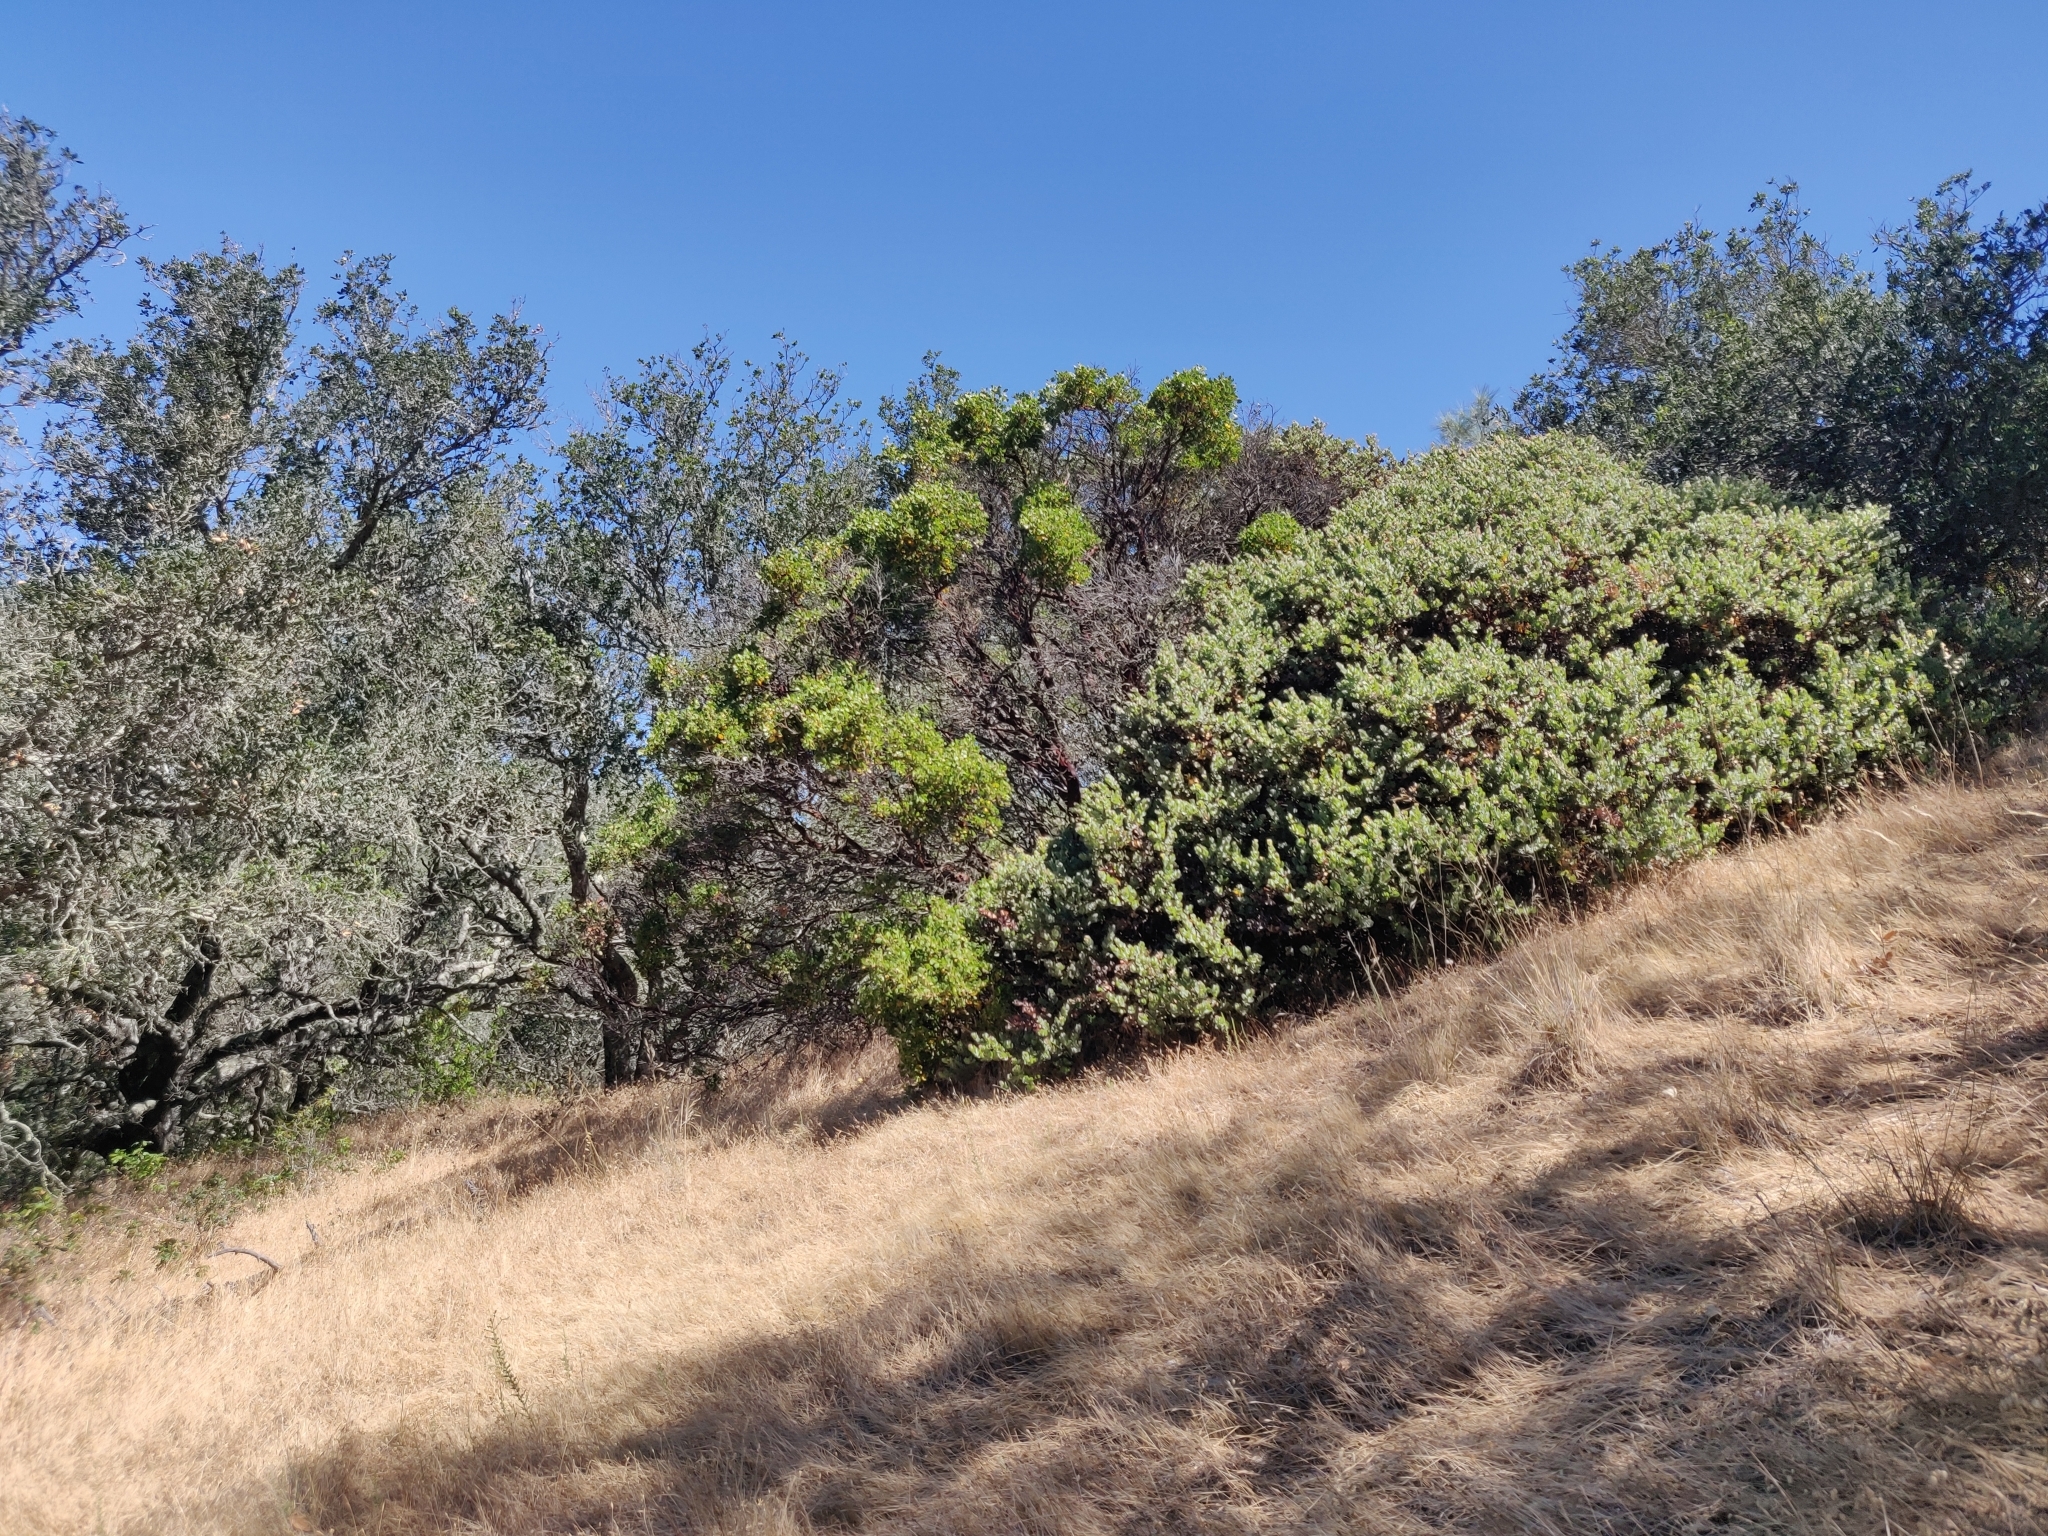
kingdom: Plantae
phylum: Tracheophyta
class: Magnoliopsida
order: Ericales
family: Ericaceae
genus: Arctostaphylos
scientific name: Arctostaphylos auriculata
